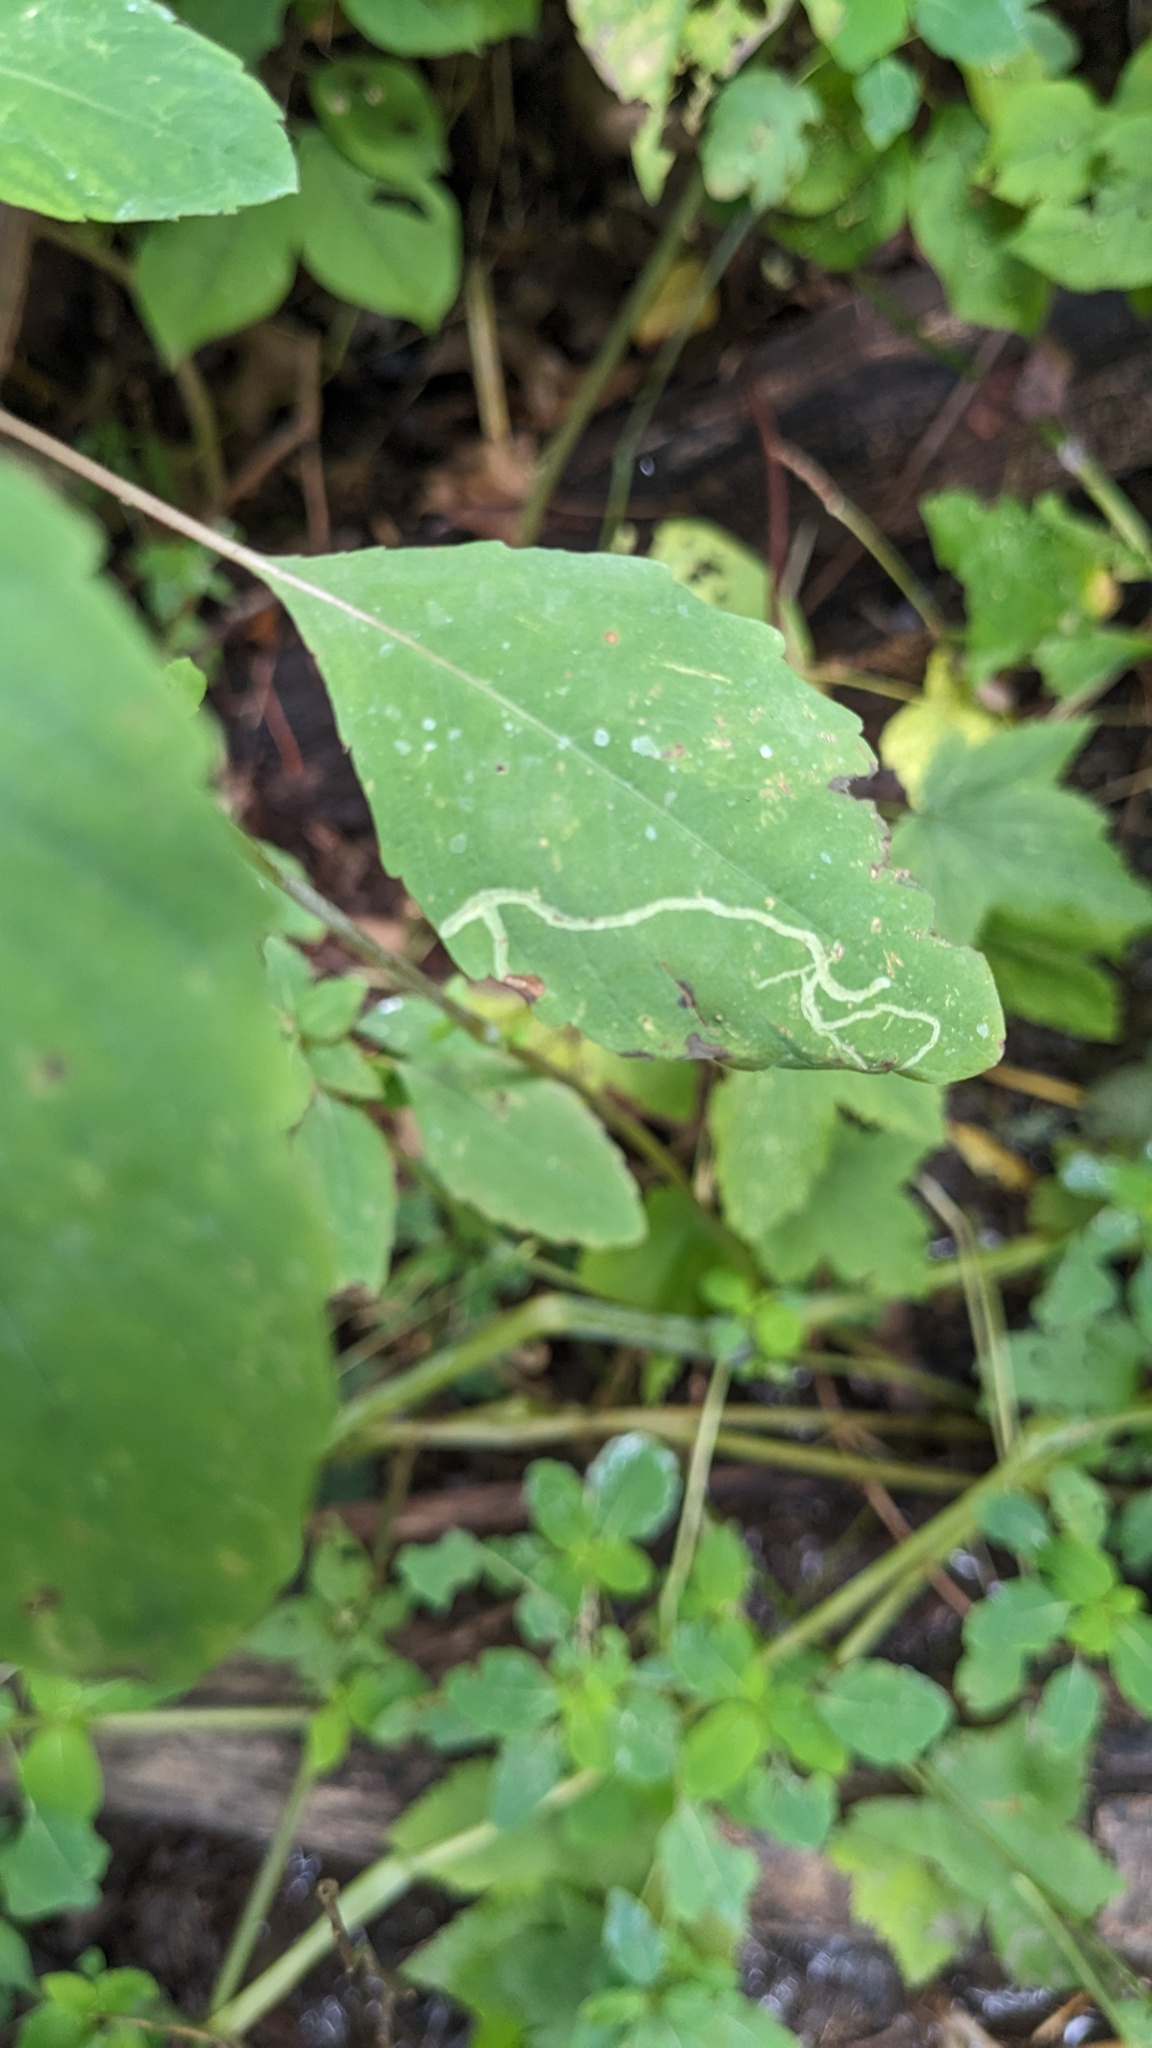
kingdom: Animalia
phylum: Arthropoda
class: Insecta
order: Diptera
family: Agromyzidae
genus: Phytoliriomyza
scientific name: Phytoliriomyza melampyga
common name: Jewelweed leaf-miner fly
